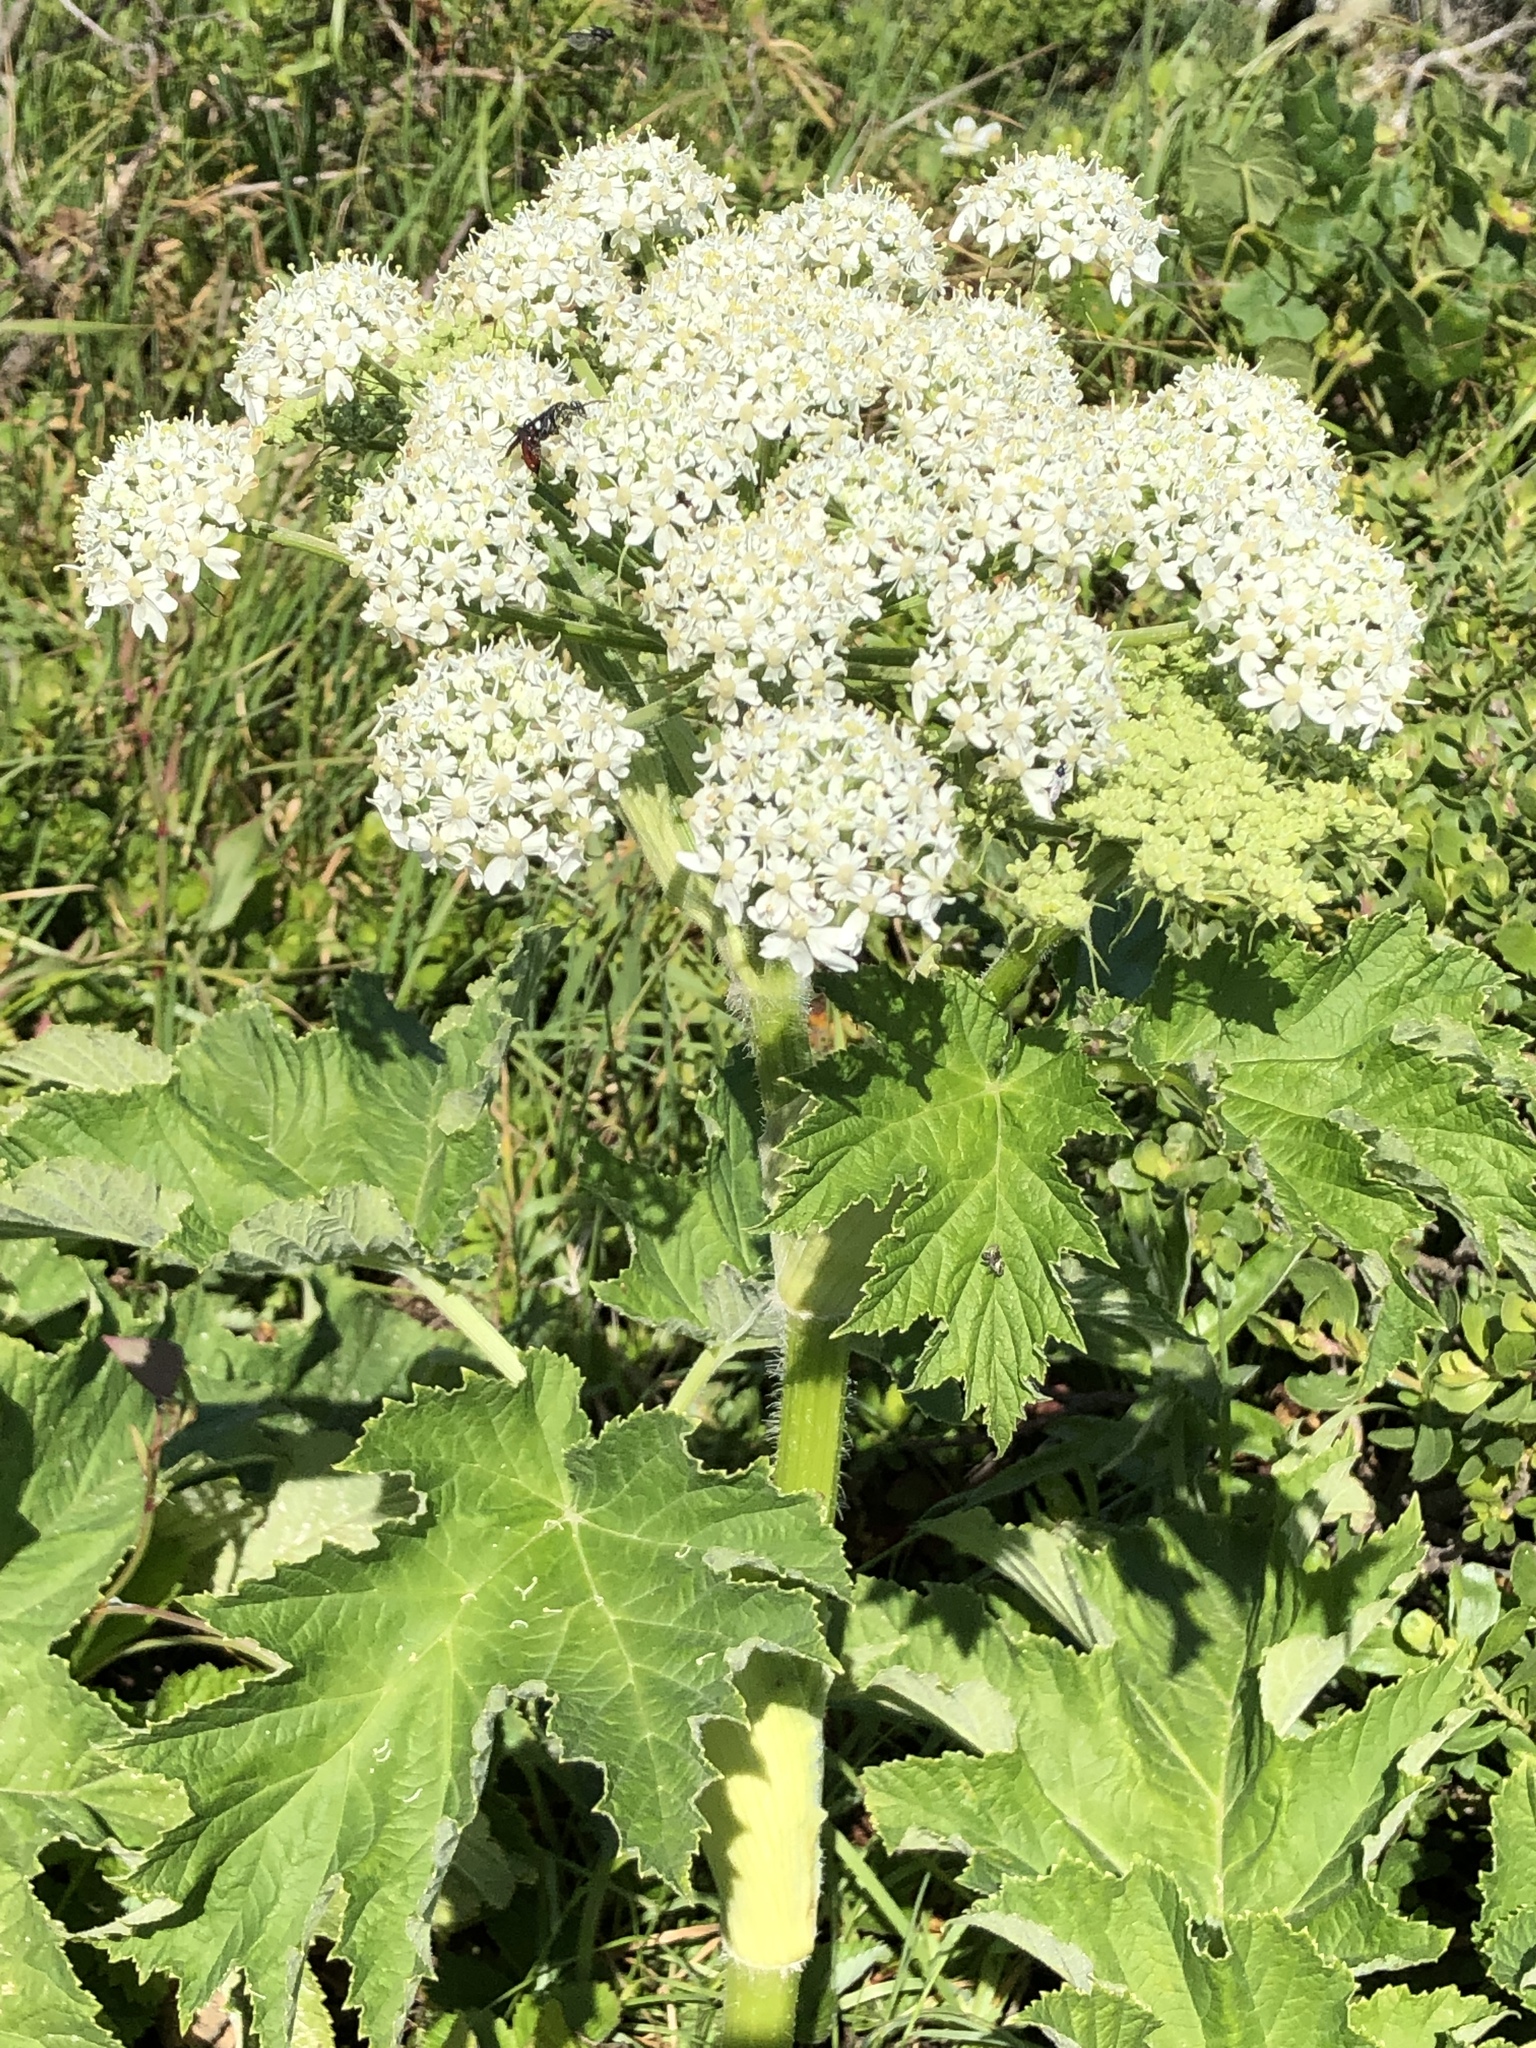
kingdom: Plantae
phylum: Tracheophyta
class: Magnoliopsida
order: Apiales
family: Apiaceae
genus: Heracleum
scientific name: Heracleum maximum
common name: American cow parsnip
